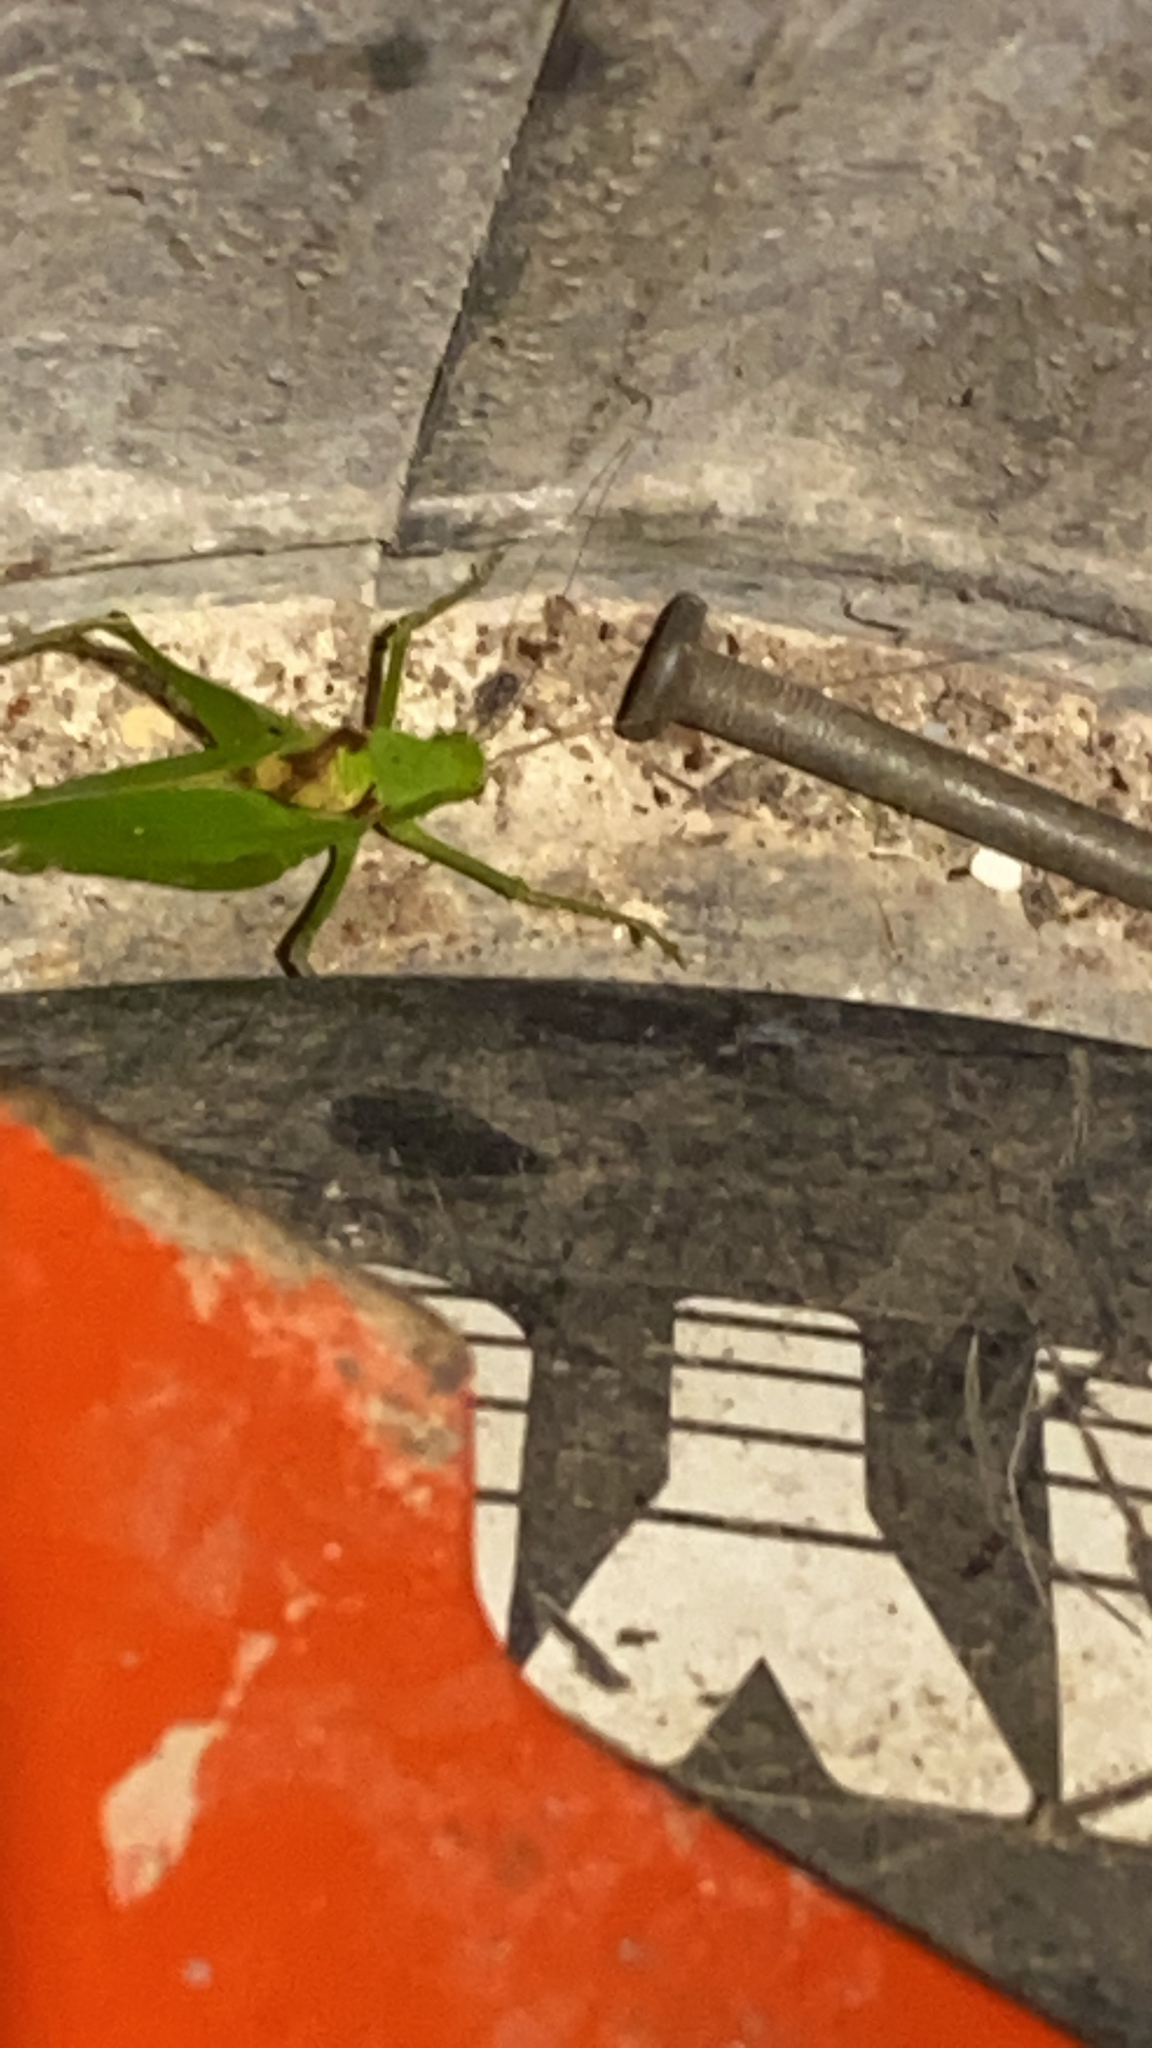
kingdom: Animalia
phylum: Arthropoda
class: Insecta
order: Orthoptera
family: Tettigoniidae
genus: Amblycorypha
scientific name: Amblycorypha oblongifolia
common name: Oblong-winged katydid
